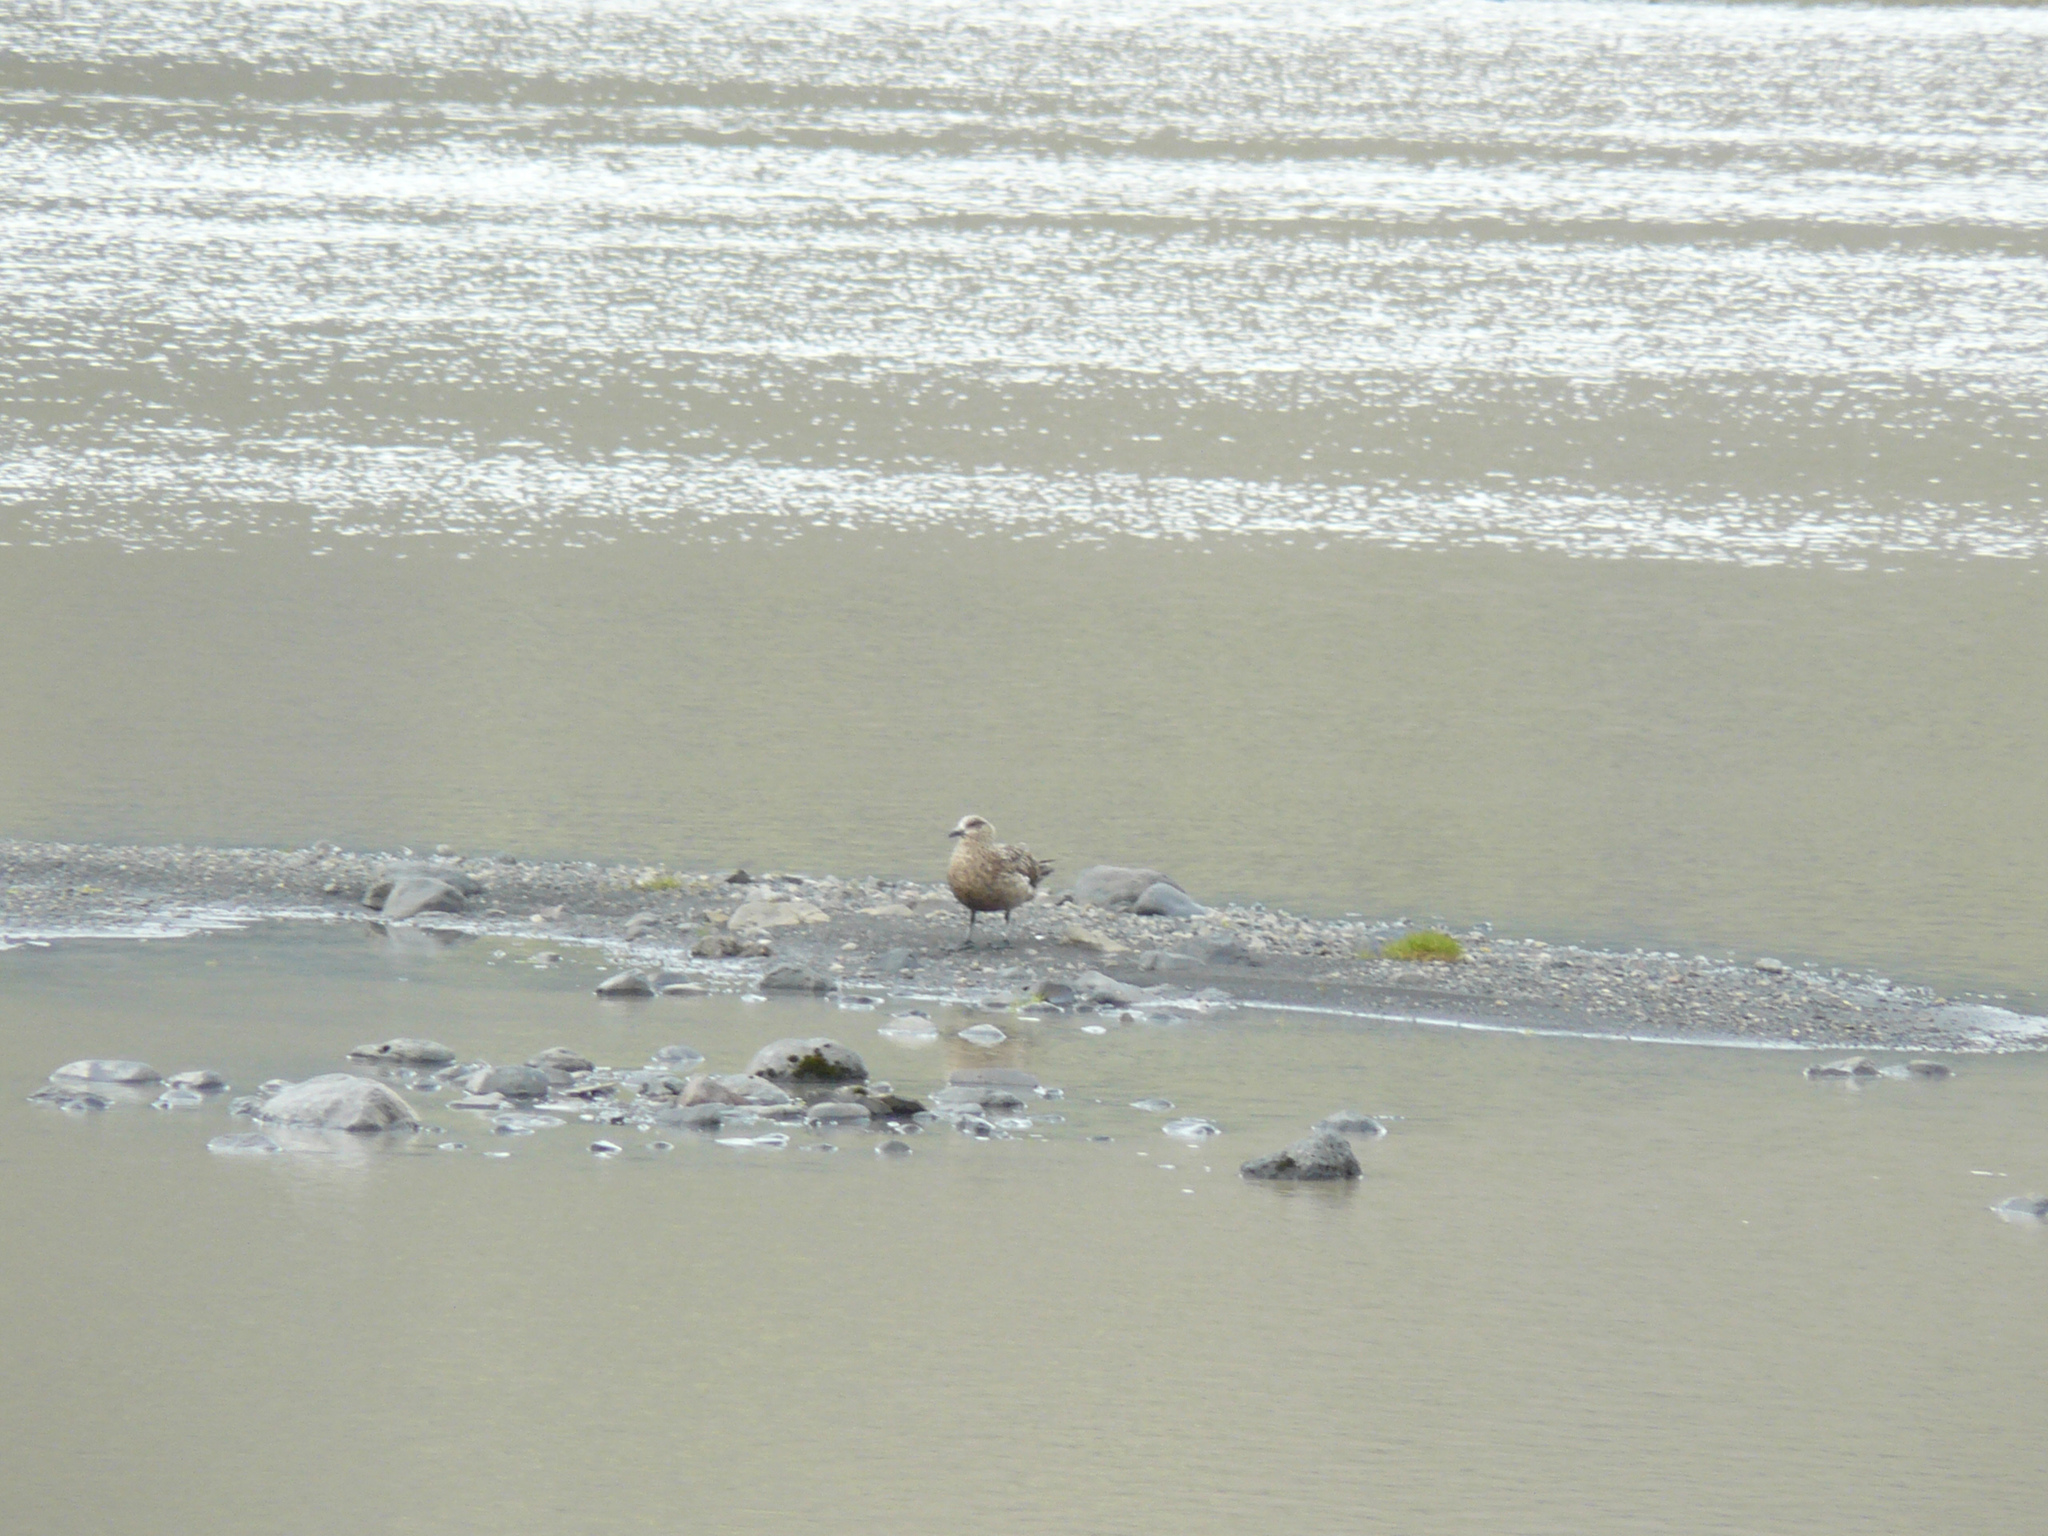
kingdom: Animalia
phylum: Chordata
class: Aves
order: Charadriiformes
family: Stercorariidae
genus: Stercorarius
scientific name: Stercorarius skua
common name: Great skua
